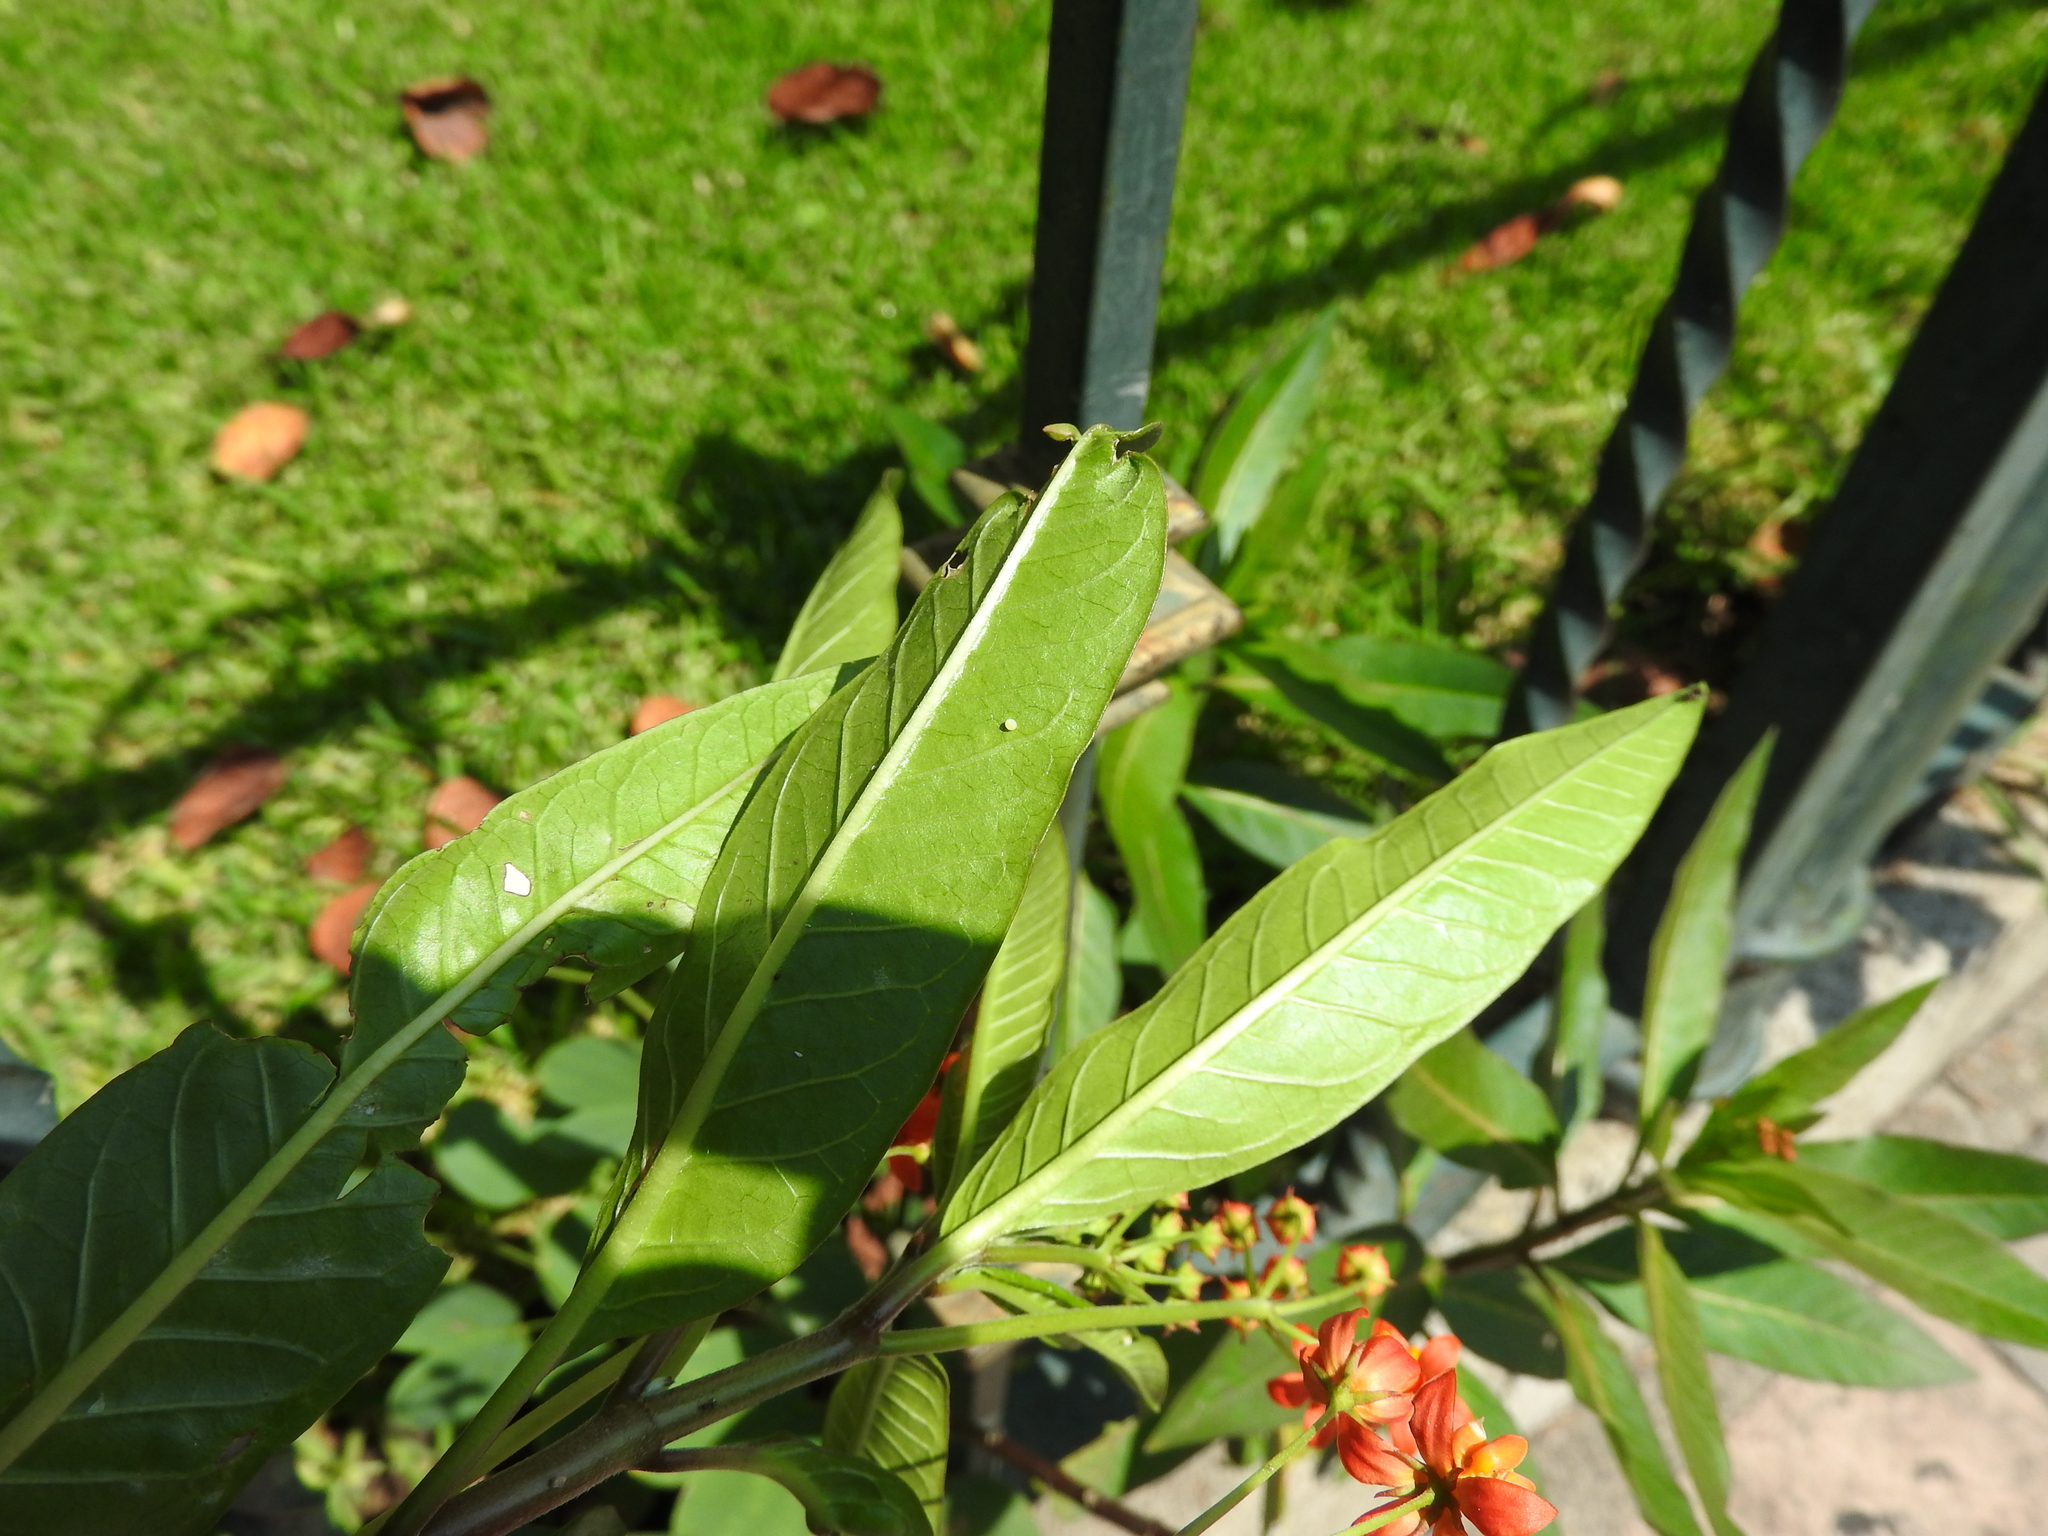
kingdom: Animalia
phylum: Arthropoda
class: Insecta
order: Lepidoptera
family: Nymphalidae
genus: Danaus
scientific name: Danaus plexippus
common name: Monarch
